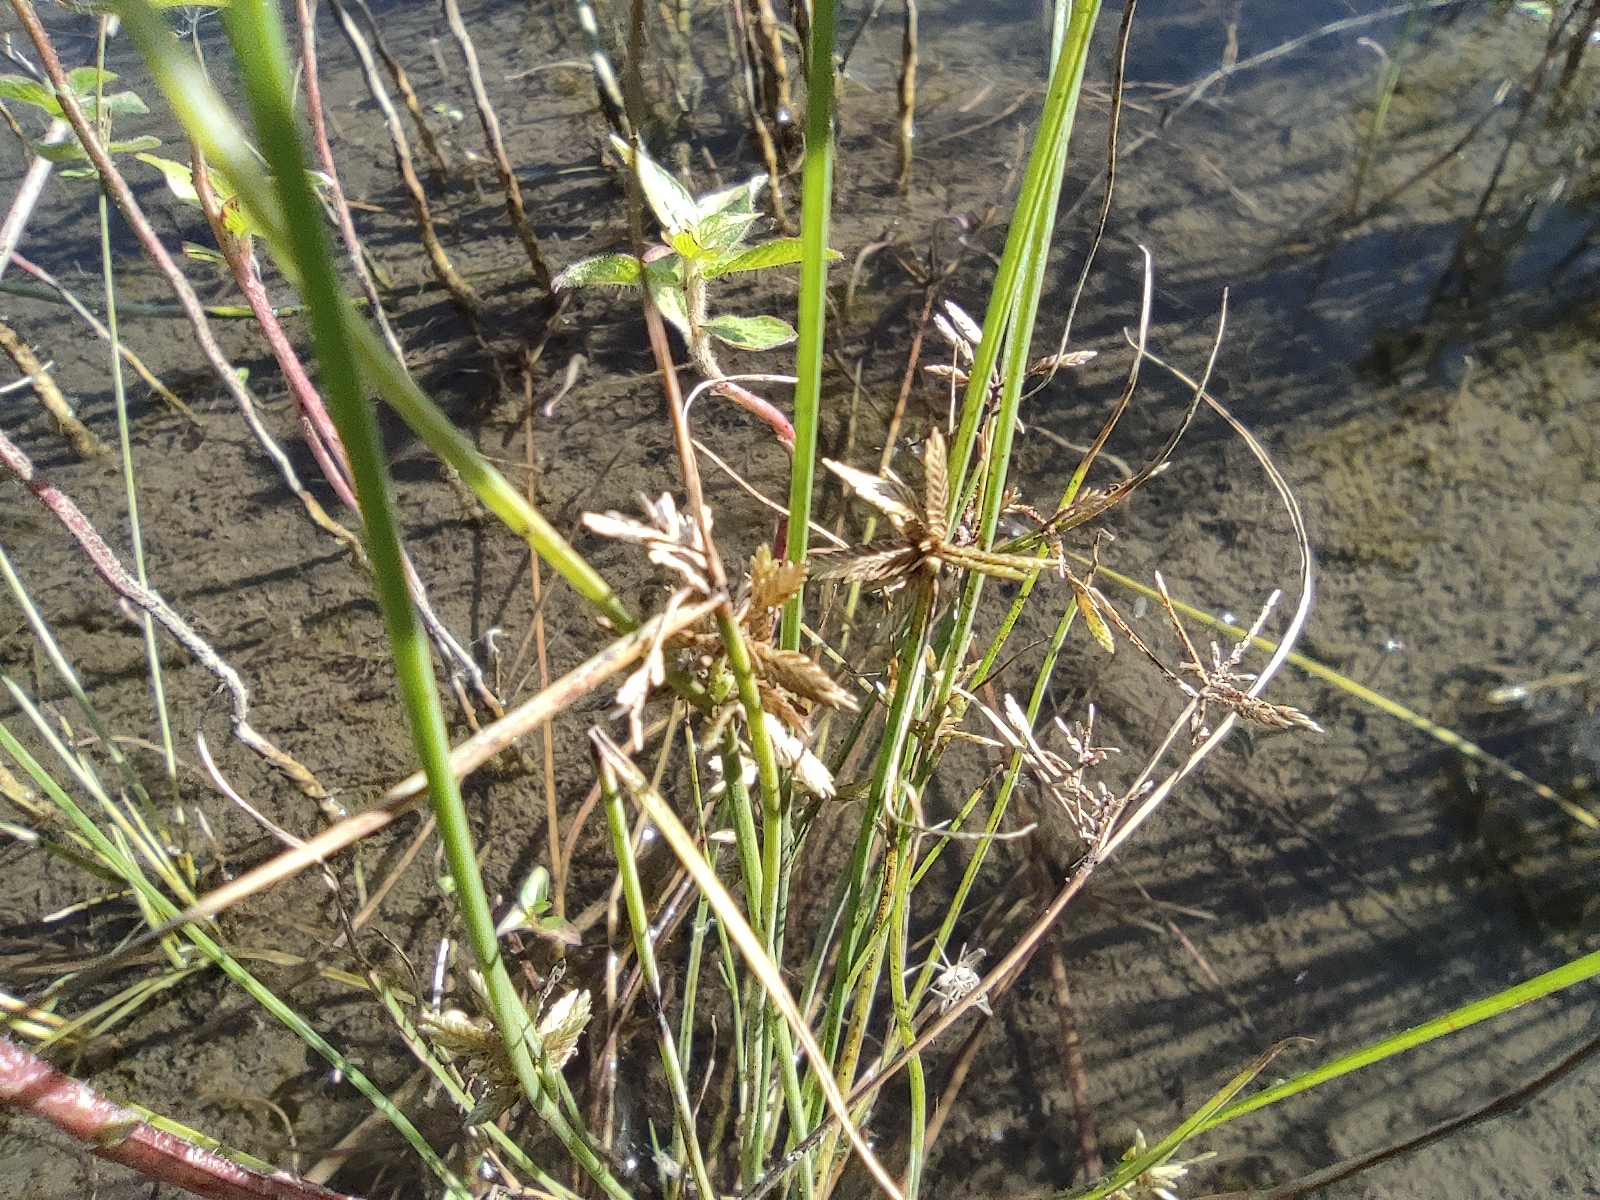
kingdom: Plantae
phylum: Tracheophyta
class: Liliopsida
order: Poales
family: Cyperaceae
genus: Cyperus
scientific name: Cyperus flavidus
